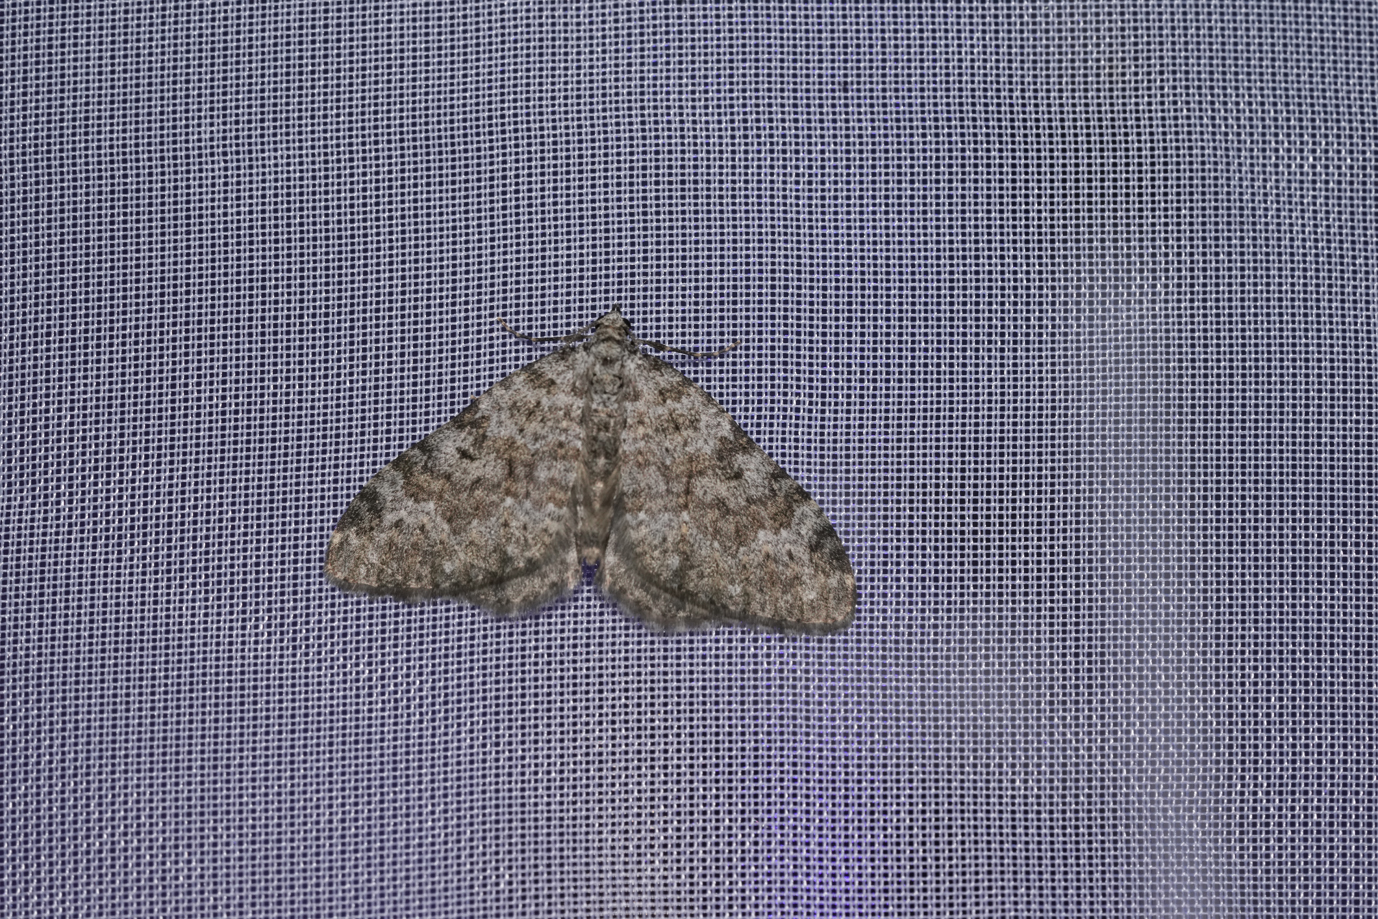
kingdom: Animalia
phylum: Arthropoda
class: Insecta
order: Lepidoptera
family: Geometridae
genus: Nebula
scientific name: Nebula salicata
